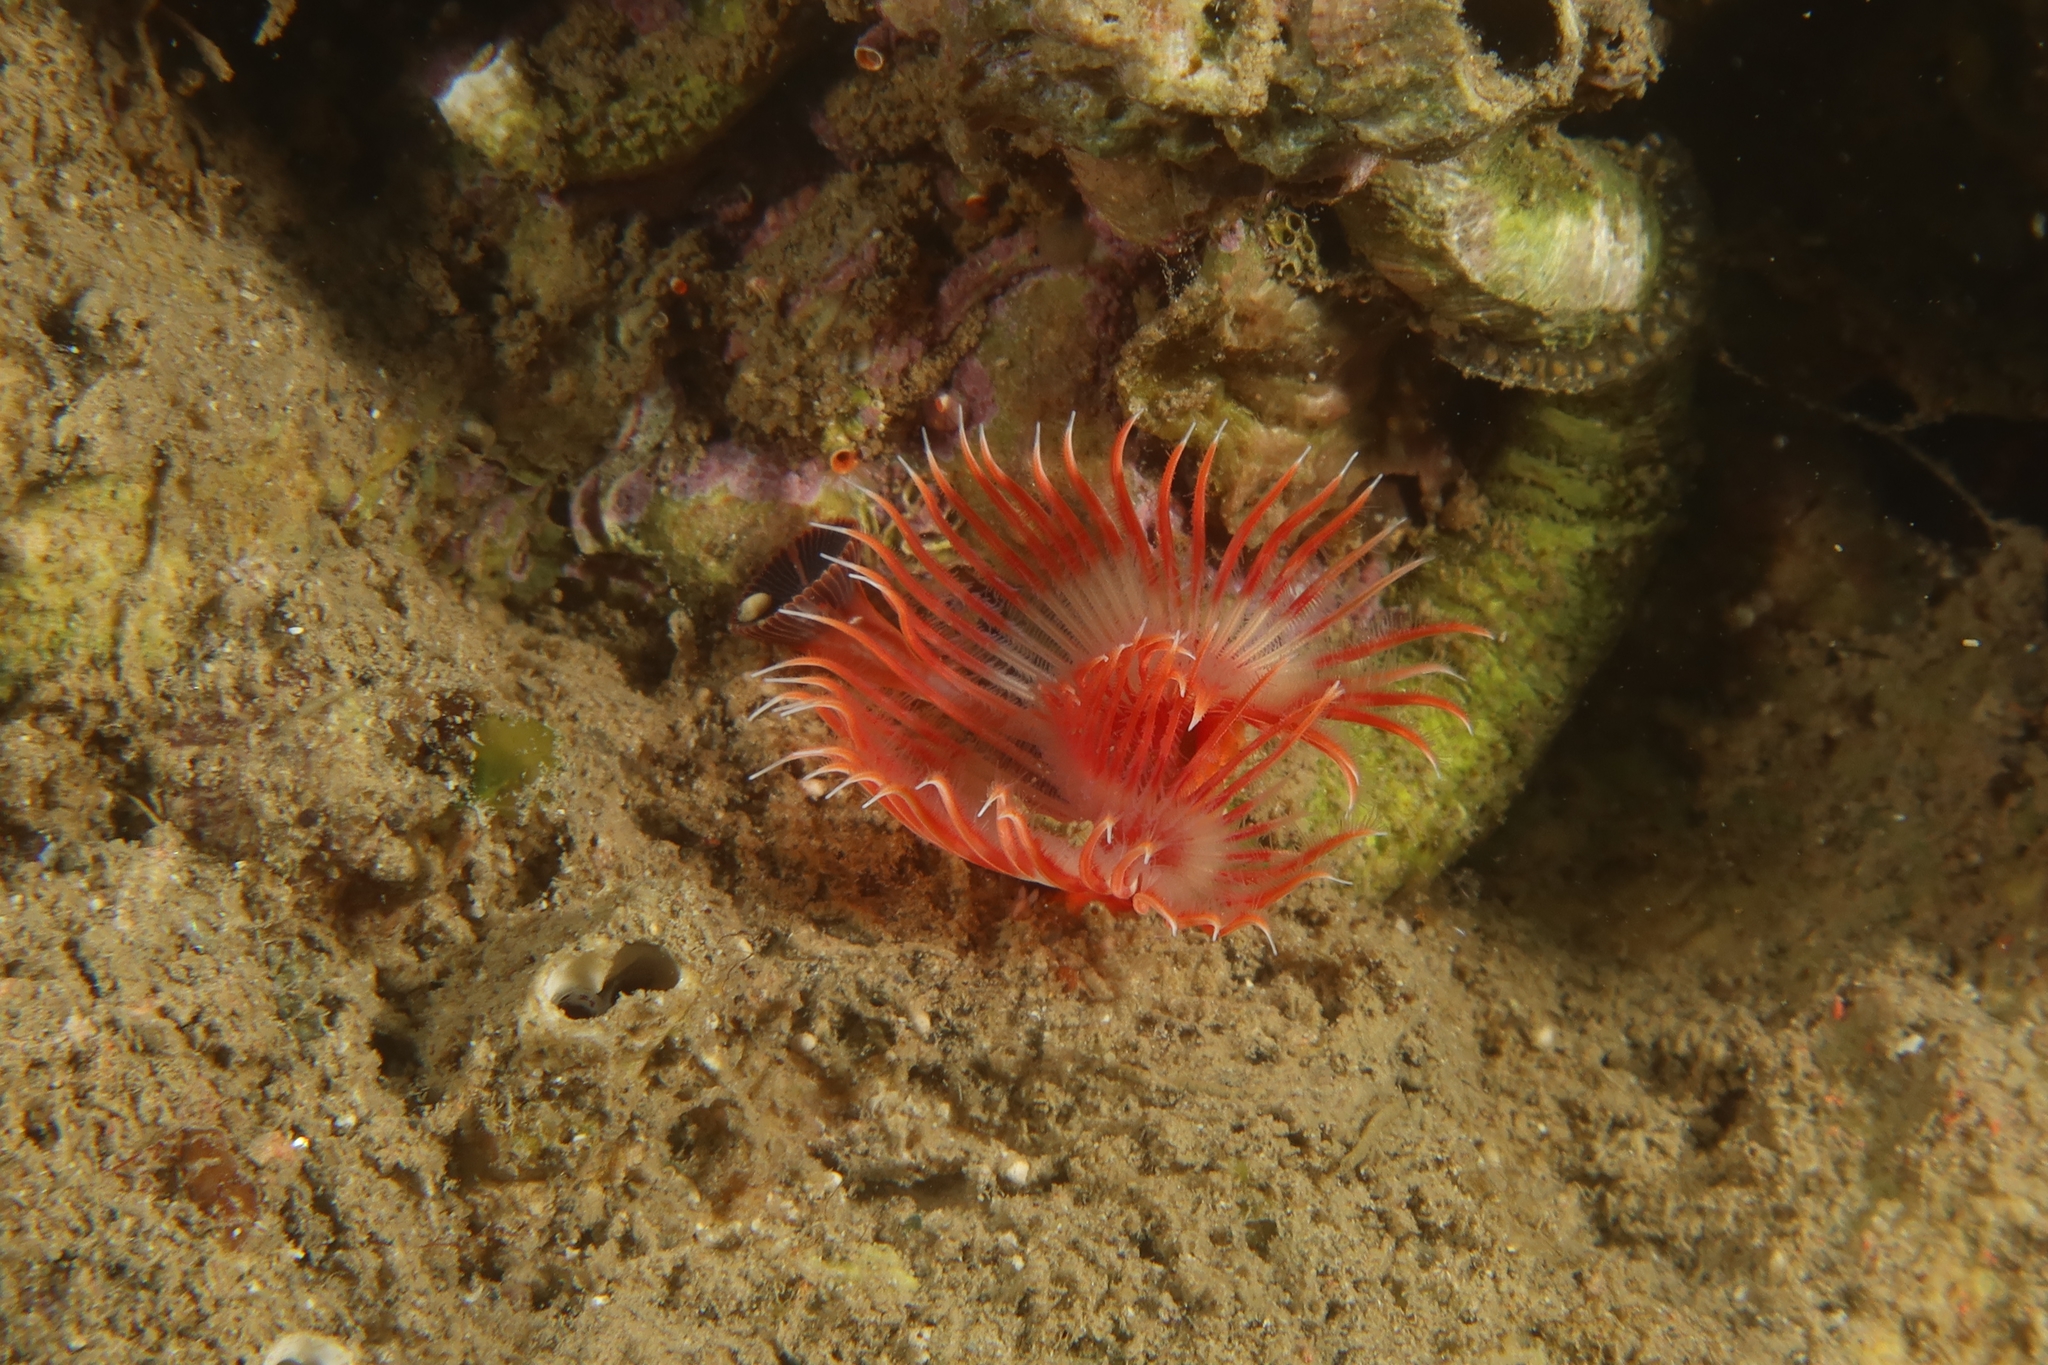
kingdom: Animalia
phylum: Annelida
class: Polychaeta
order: Sabellida
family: Serpulidae
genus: Serpula
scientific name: Serpula vermicularis
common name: Calcareous tubeworm
